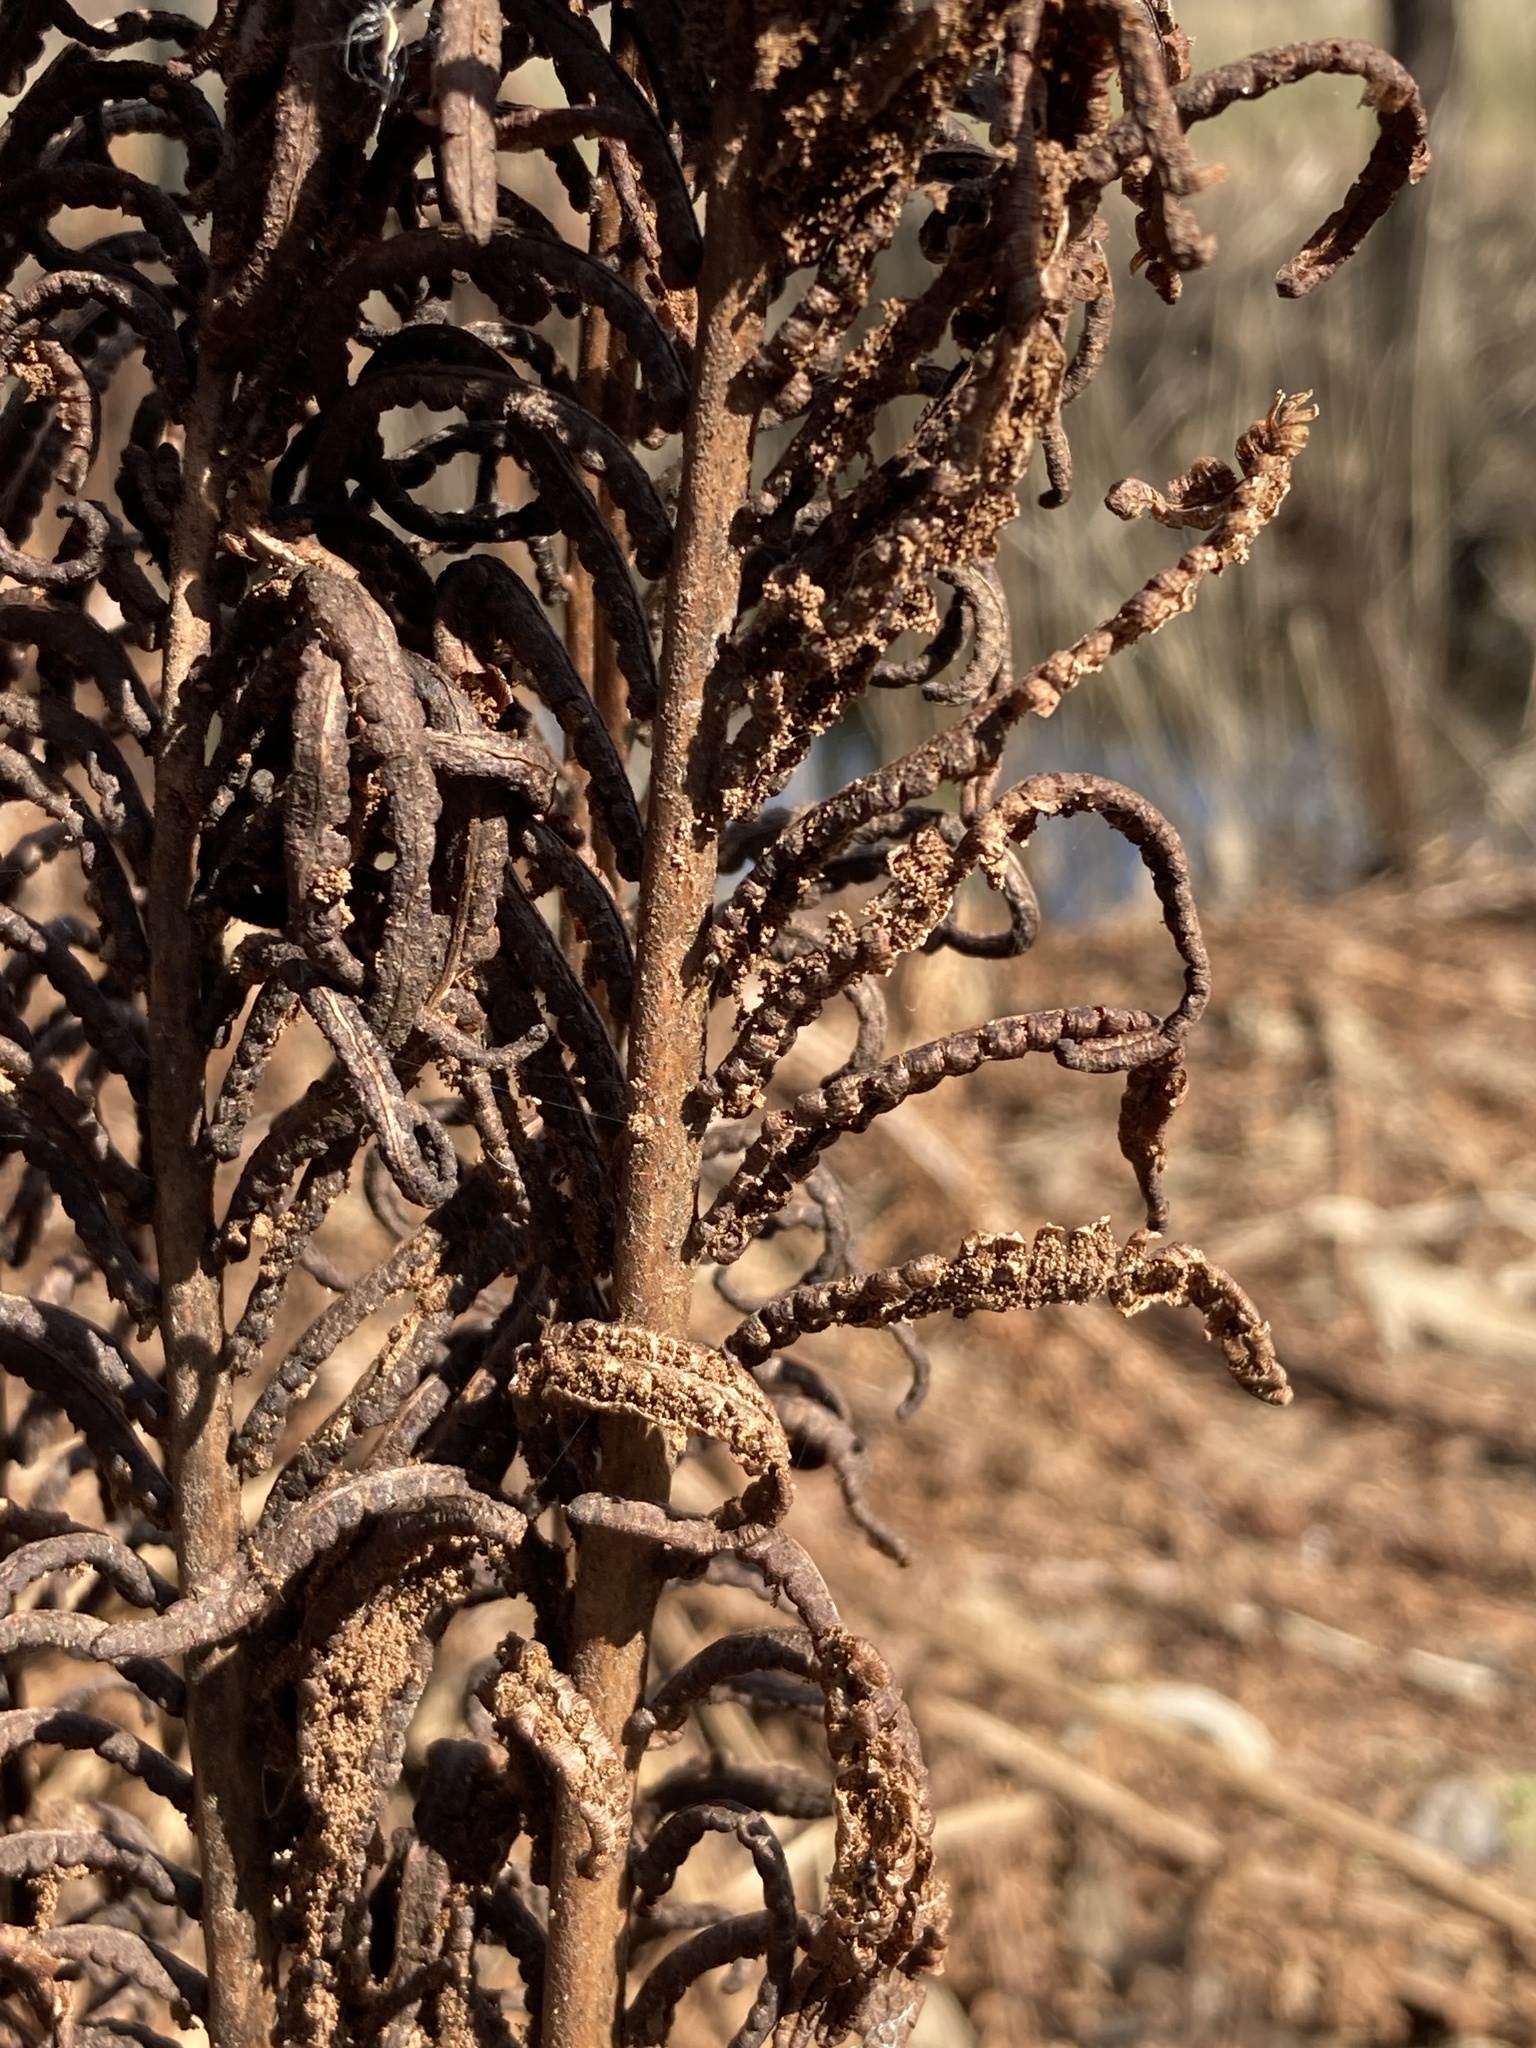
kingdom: Plantae
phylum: Tracheophyta
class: Polypodiopsida
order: Polypodiales
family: Onocleaceae
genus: Matteuccia
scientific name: Matteuccia struthiopteris
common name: Ostrich fern
